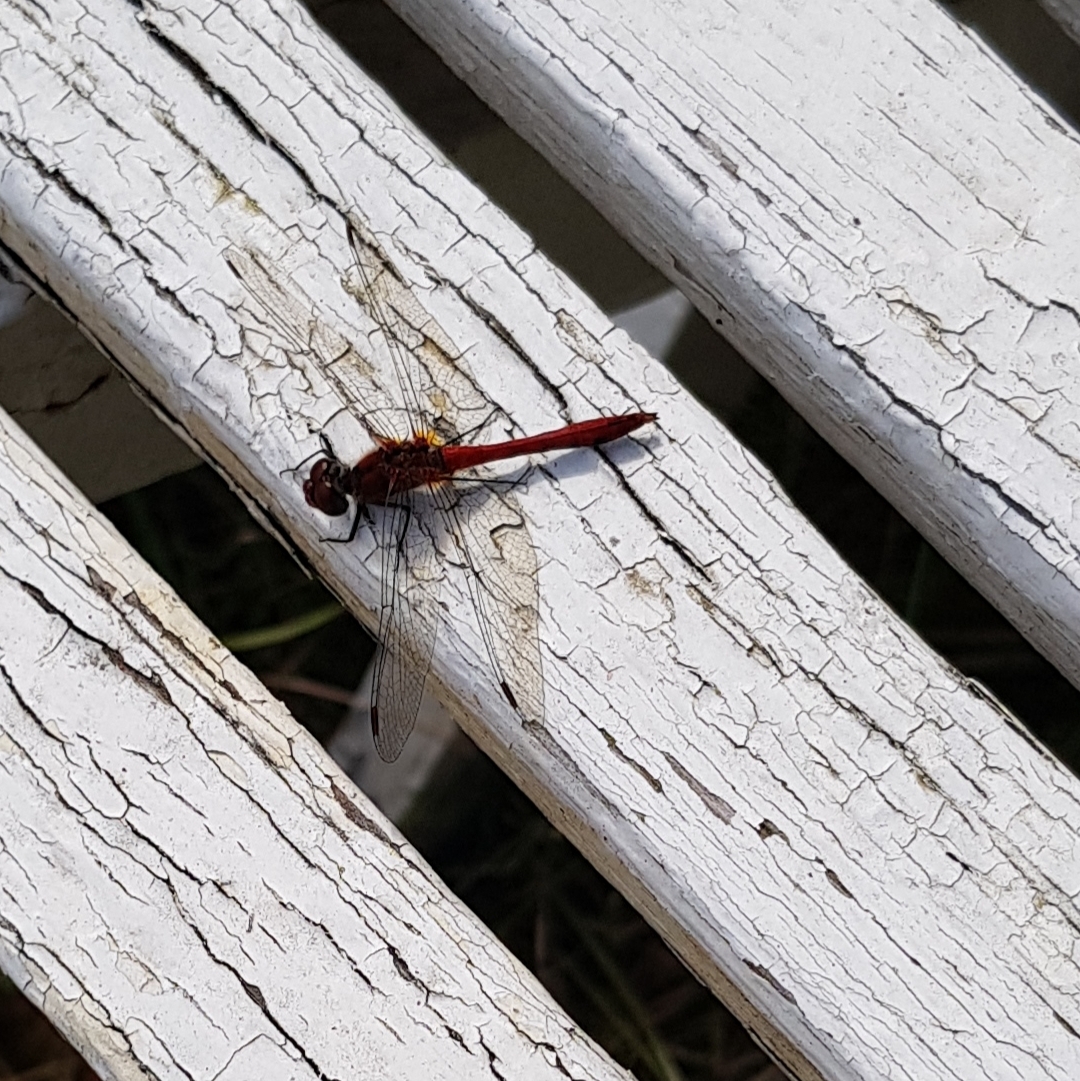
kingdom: Animalia
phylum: Arthropoda
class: Insecta
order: Odonata
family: Libellulidae
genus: Sympetrum
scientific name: Sympetrum sanguineum
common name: Ruddy darter
